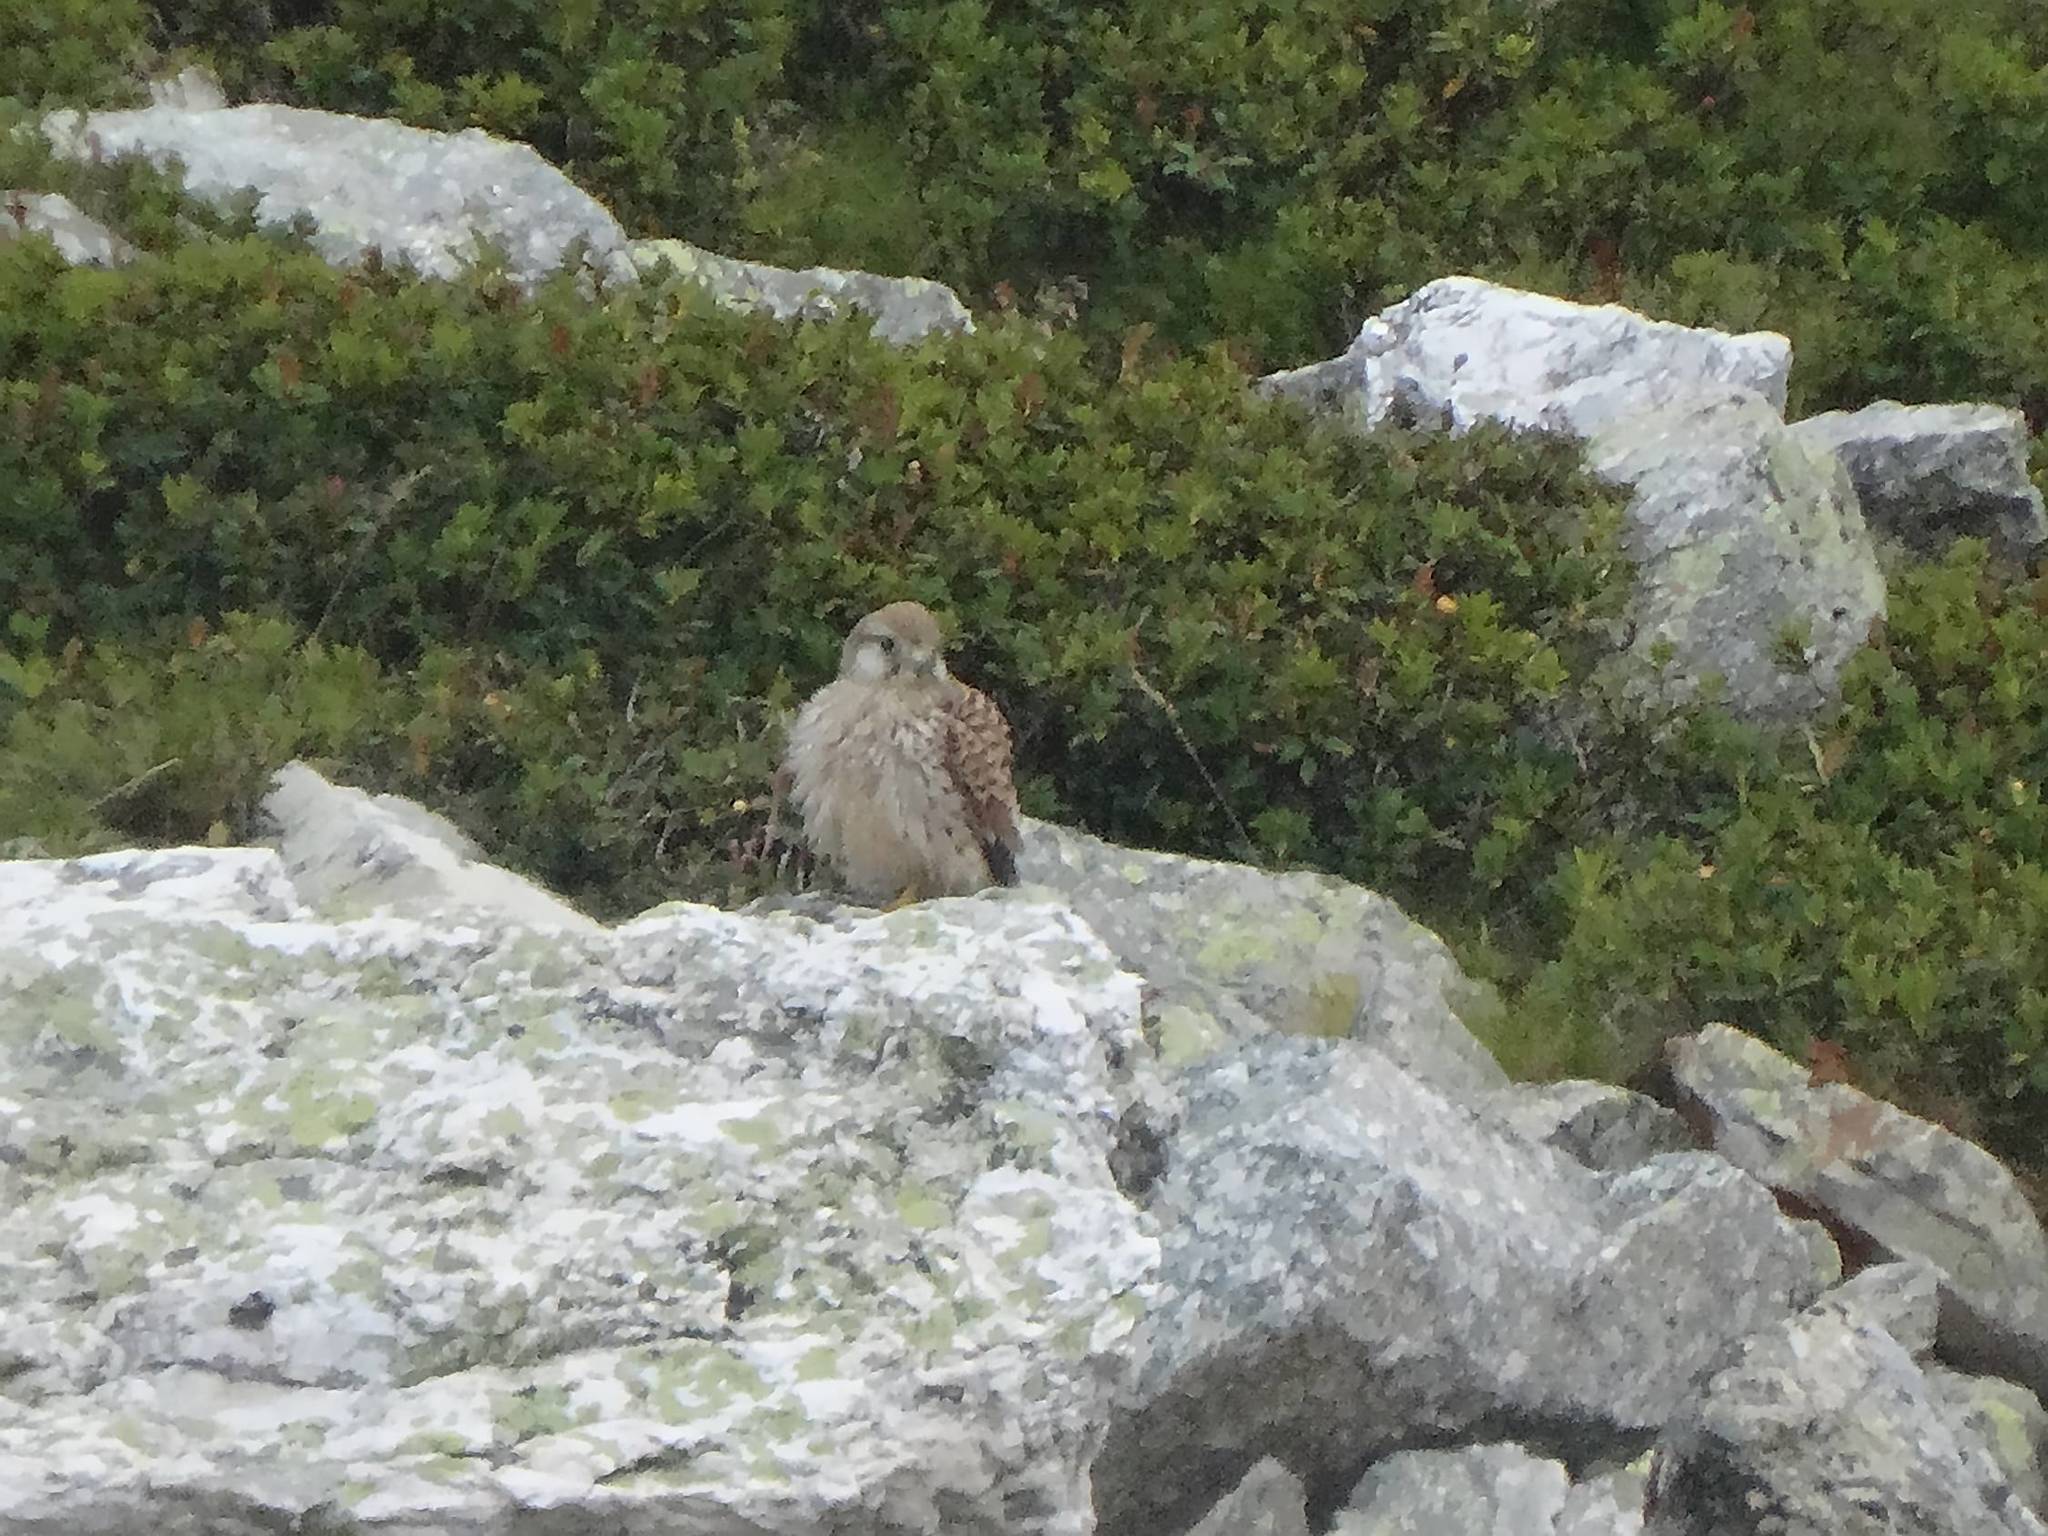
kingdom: Animalia
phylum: Chordata
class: Aves
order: Falconiformes
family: Falconidae
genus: Falco
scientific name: Falco tinnunculus
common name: Common kestrel
